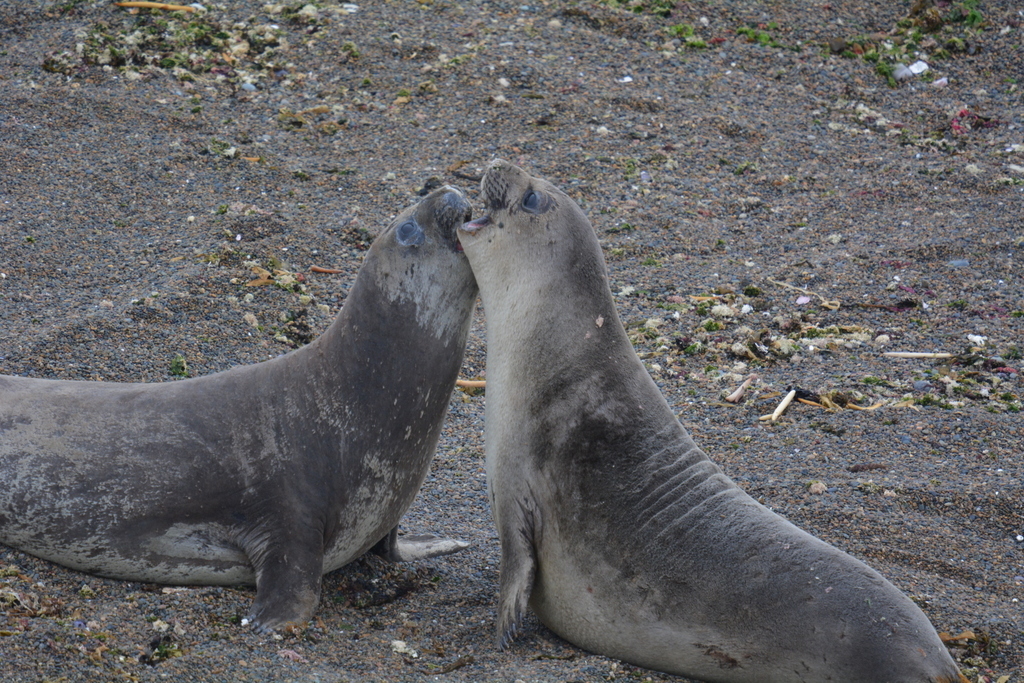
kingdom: Animalia
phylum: Chordata
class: Mammalia
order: Carnivora
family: Phocidae
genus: Mirounga
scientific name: Mirounga leonina
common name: Southern elephant seal
